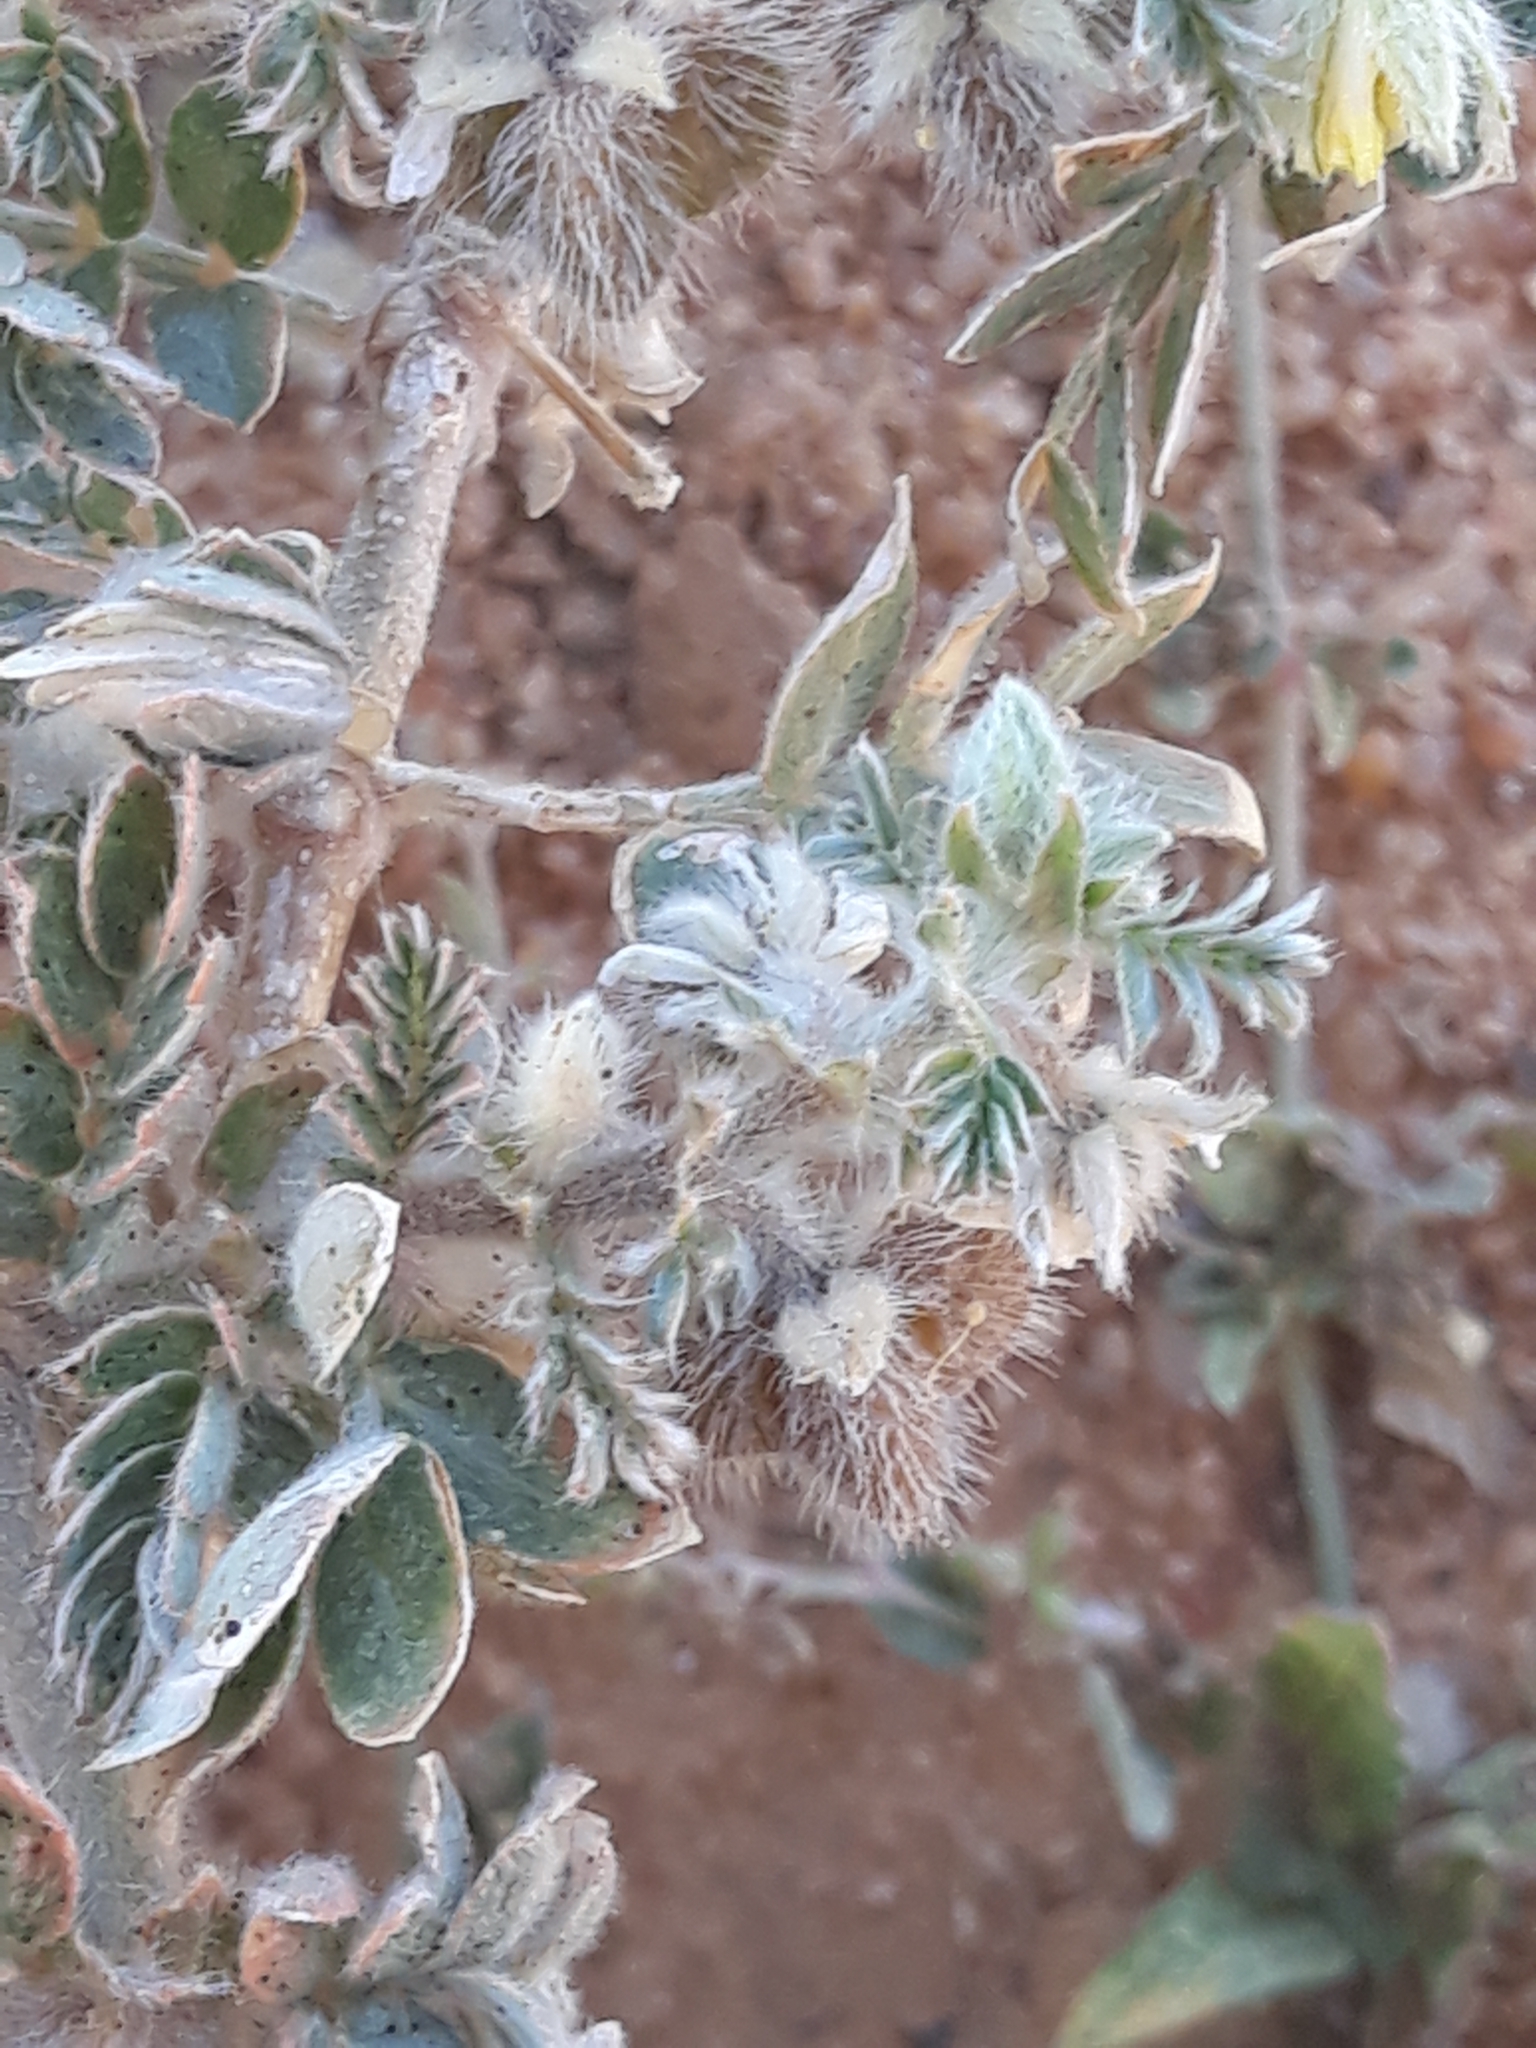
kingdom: Plantae
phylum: Tracheophyta
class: Magnoliopsida
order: Zygophyllales
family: Zygophyllaceae
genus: Tribulus
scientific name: Tribulus mollis
